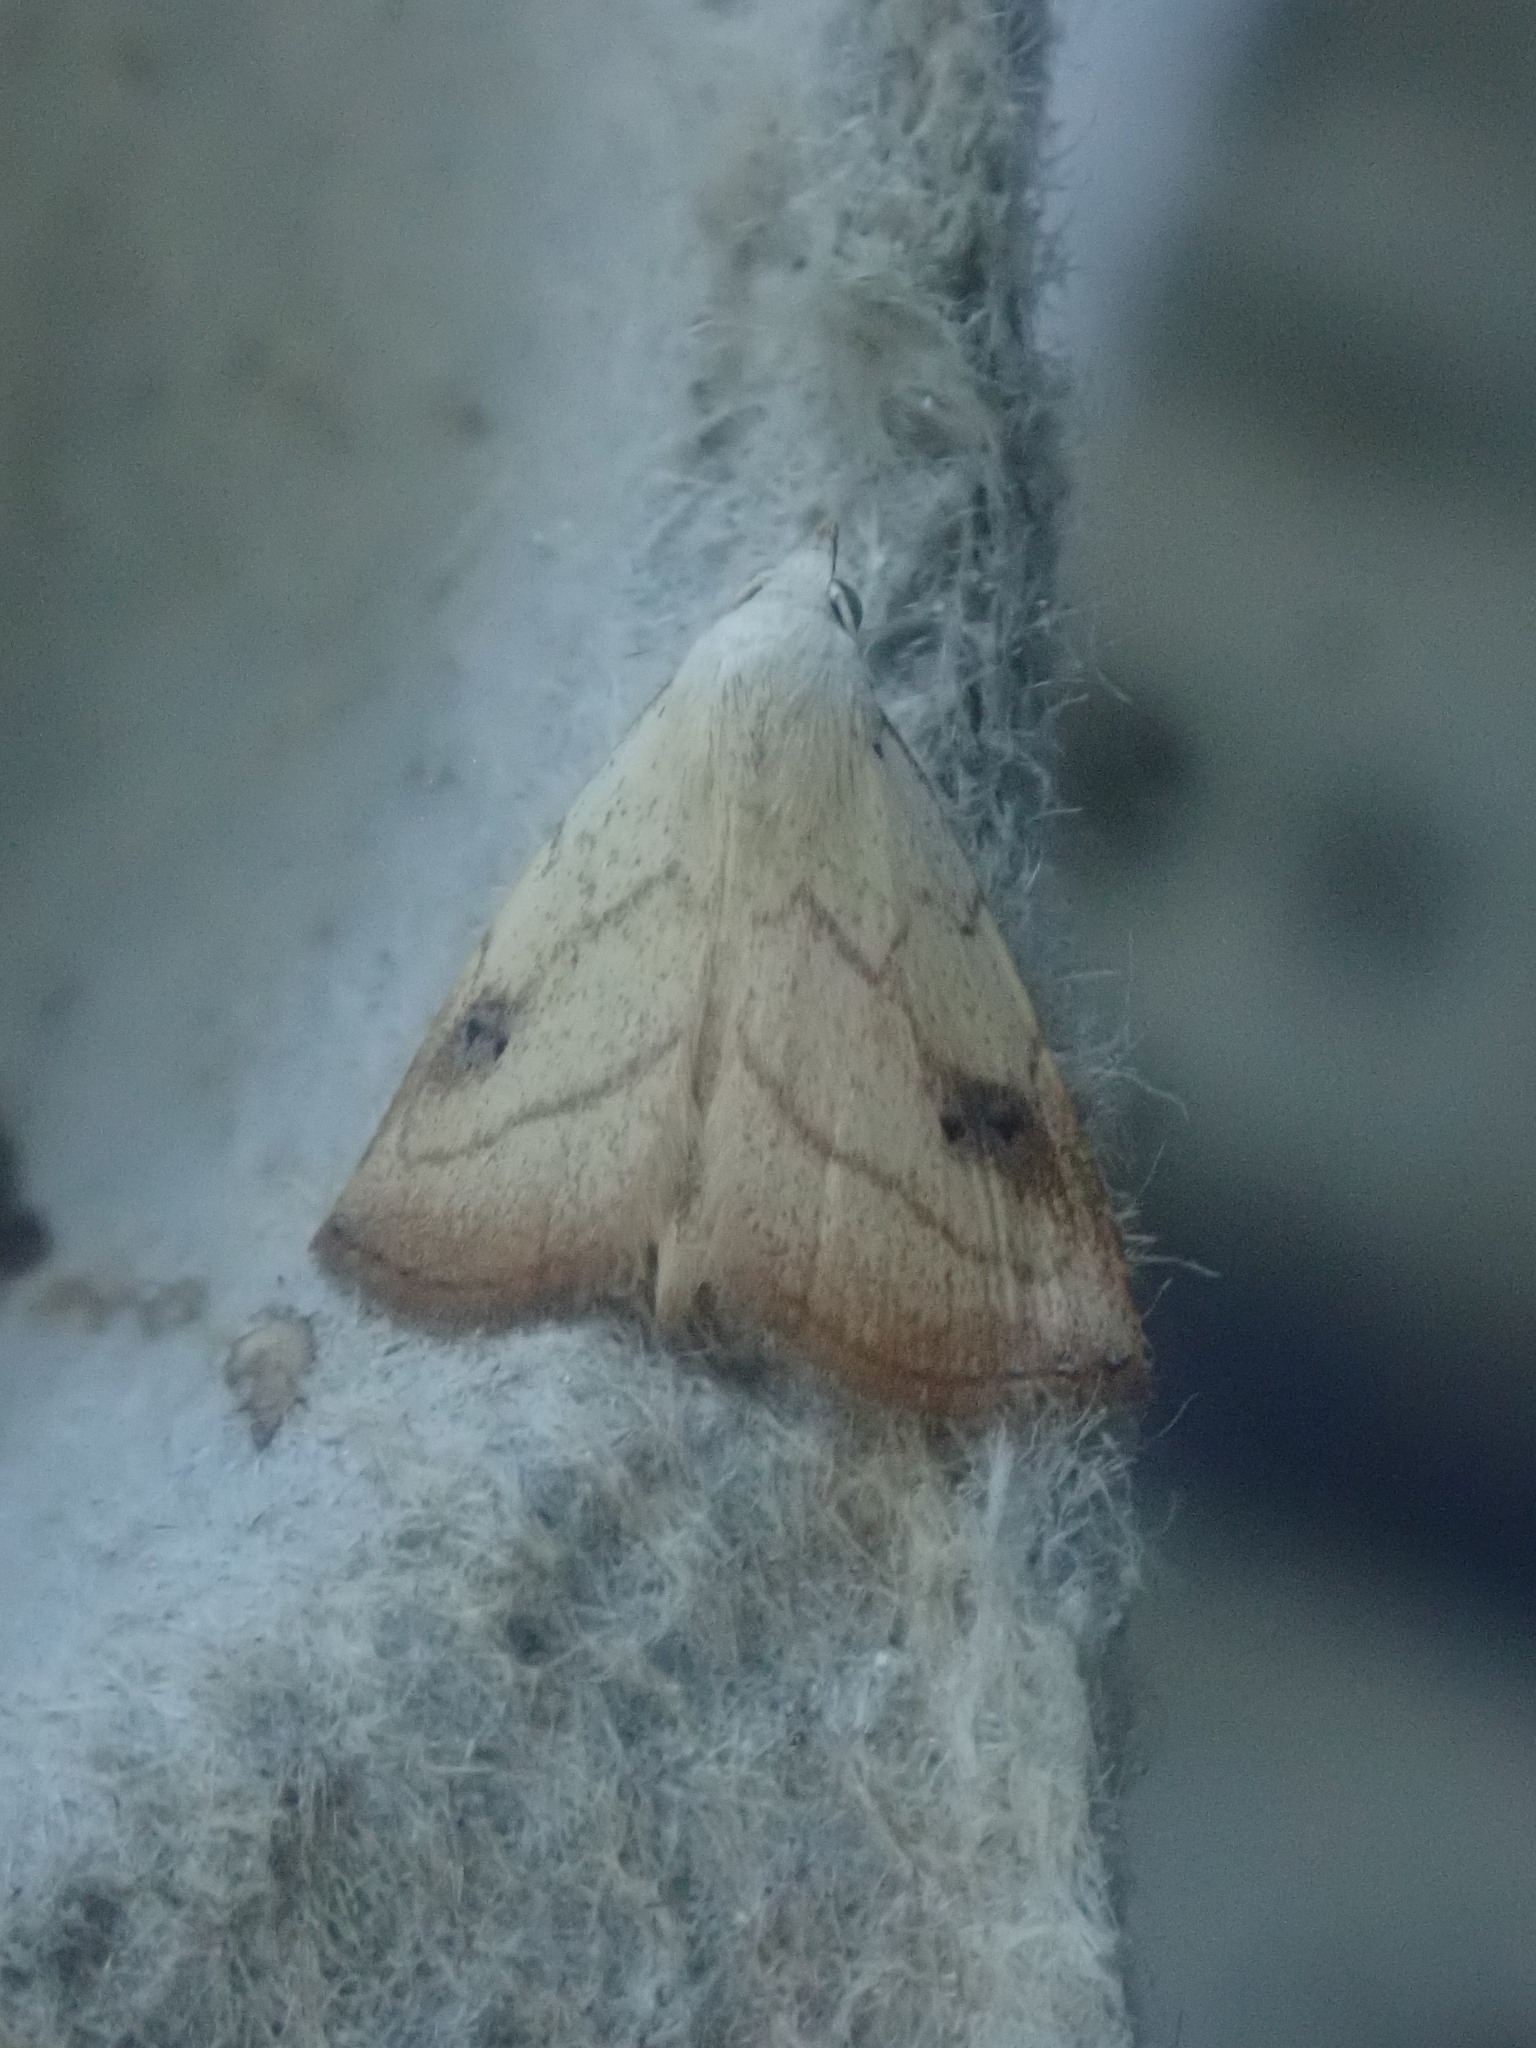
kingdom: Animalia
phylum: Arthropoda
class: Insecta
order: Lepidoptera
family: Erebidae
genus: Rivula
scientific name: Rivula propinqualis
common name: Spotted grass moth
